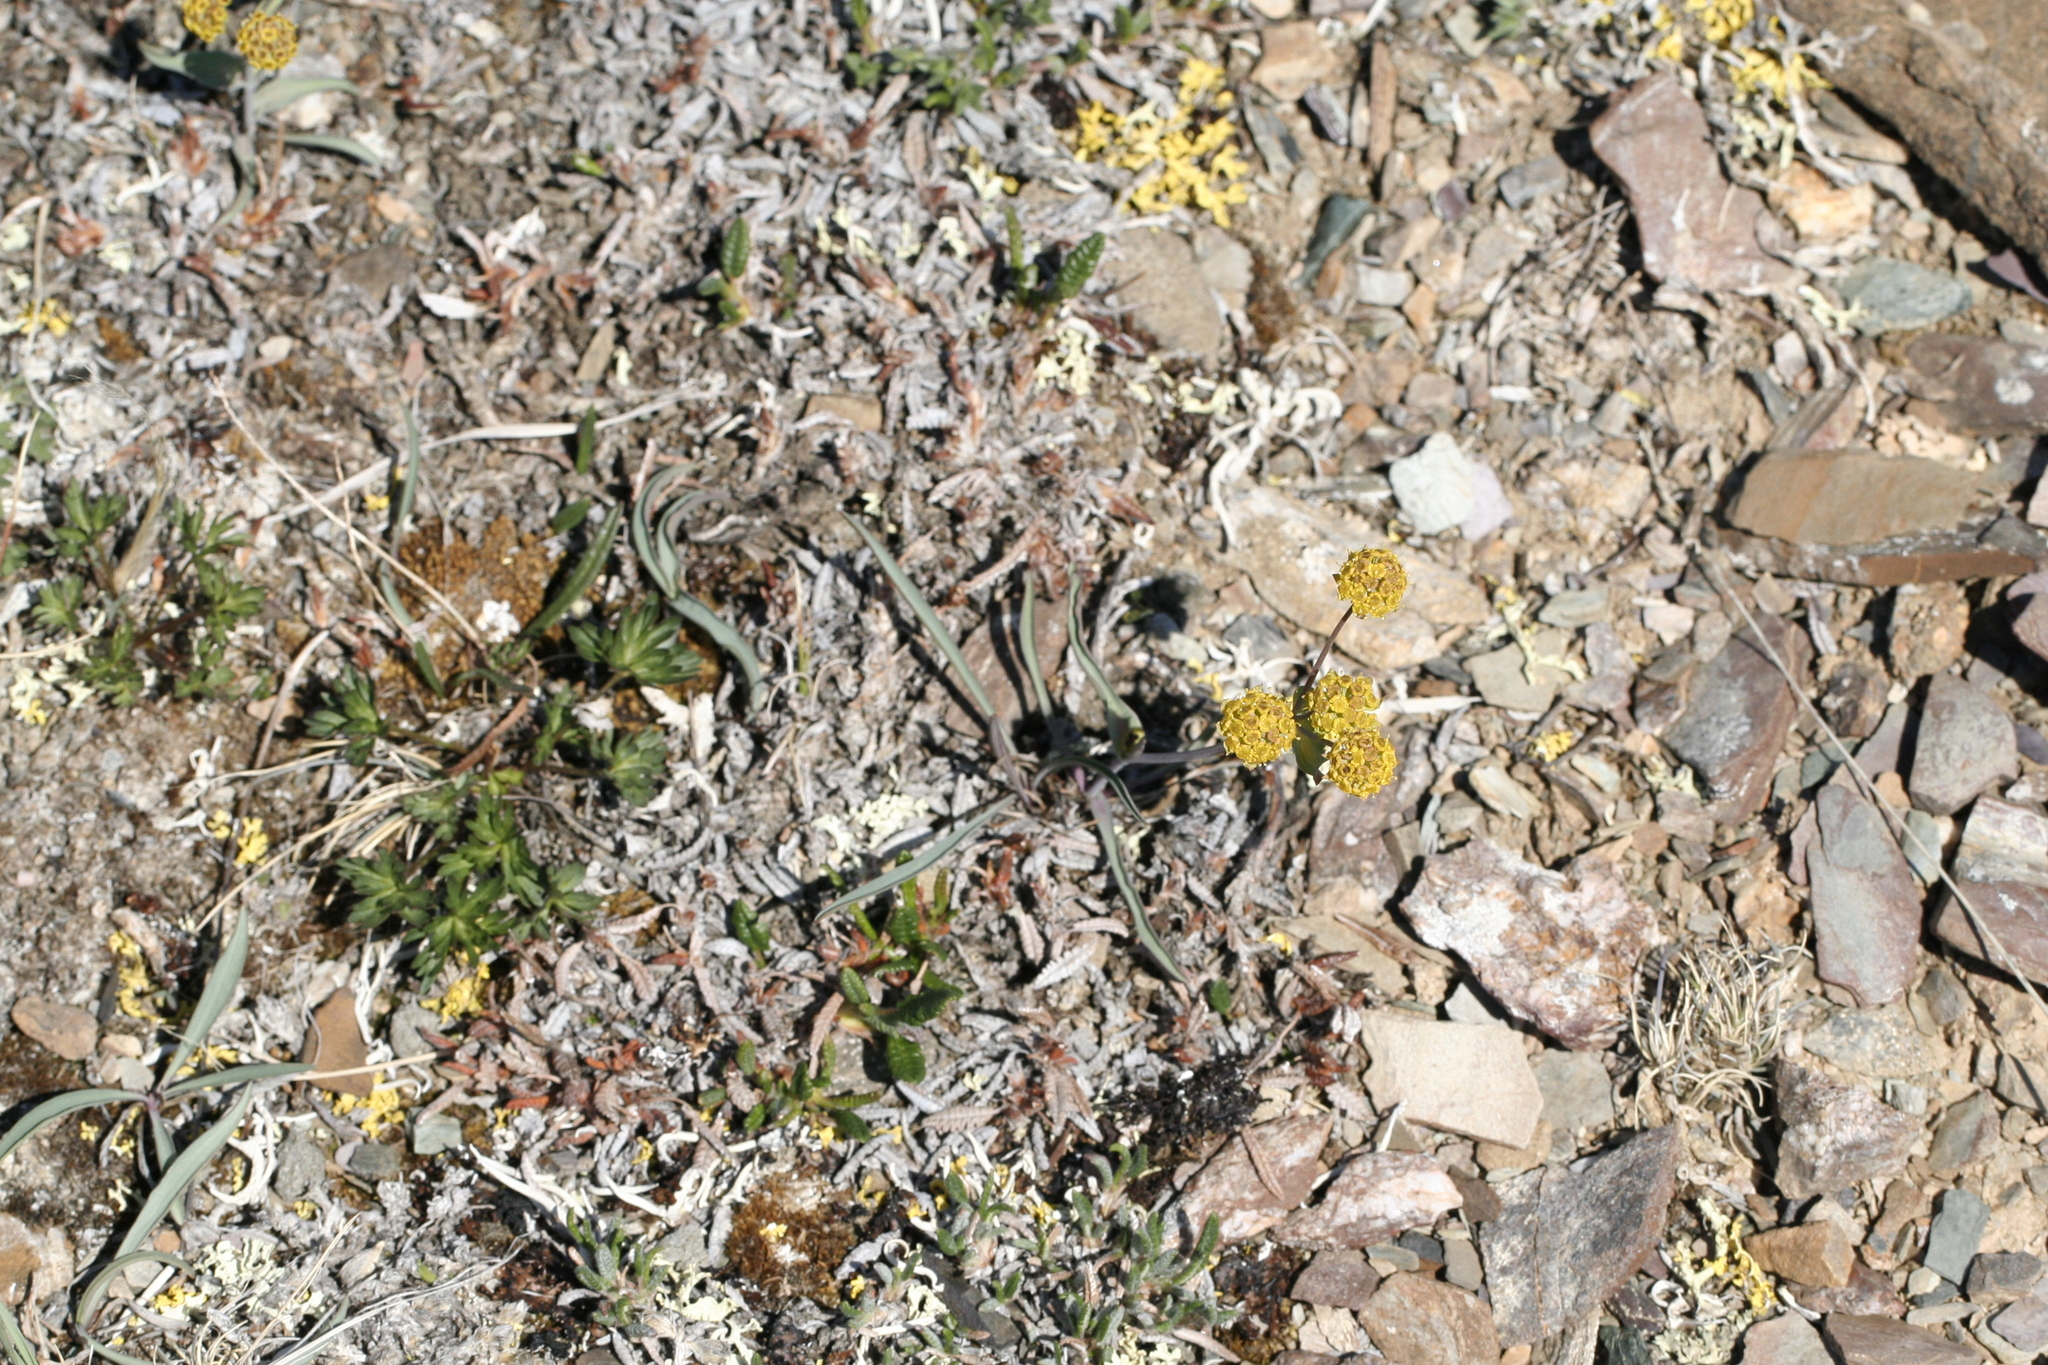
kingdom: Plantae
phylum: Tracheophyta
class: Magnoliopsida
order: Apiales
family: Apiaceae
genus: Bupleurum
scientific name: Bupleurum americanum
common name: American thoroughwax
